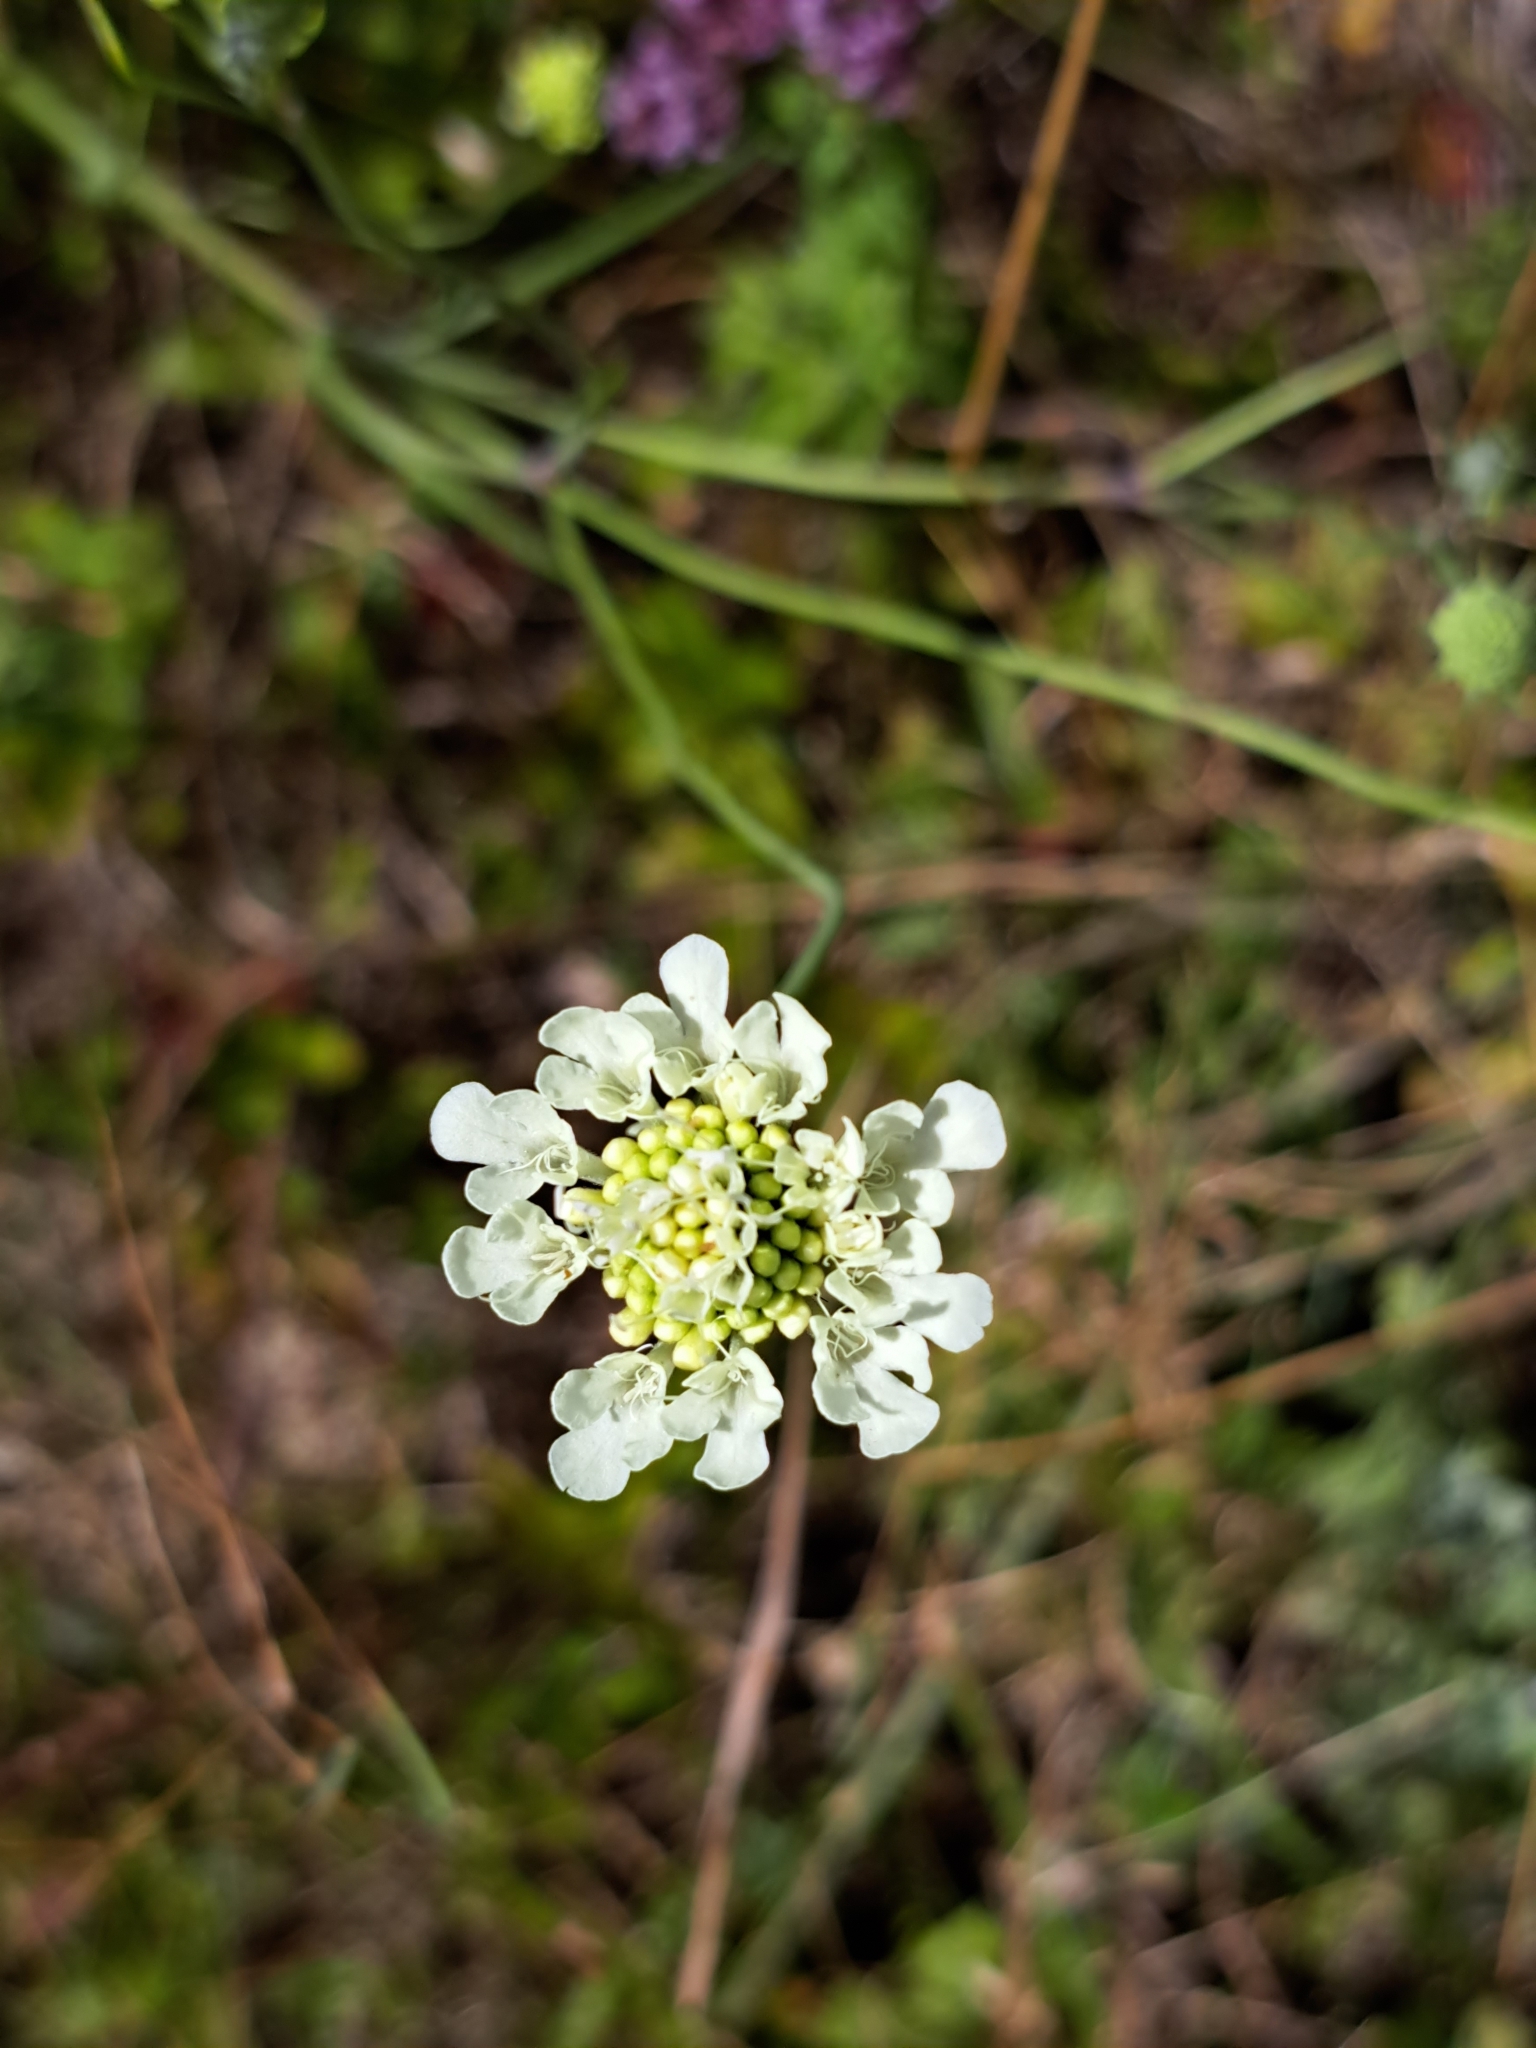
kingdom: Plantae
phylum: Tracheophyta
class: Magnoliopsida
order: Dipsacales
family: Caprifoliaceae
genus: Scabiosa
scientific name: Scabiosa ochroleuca
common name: Cream pincushions
